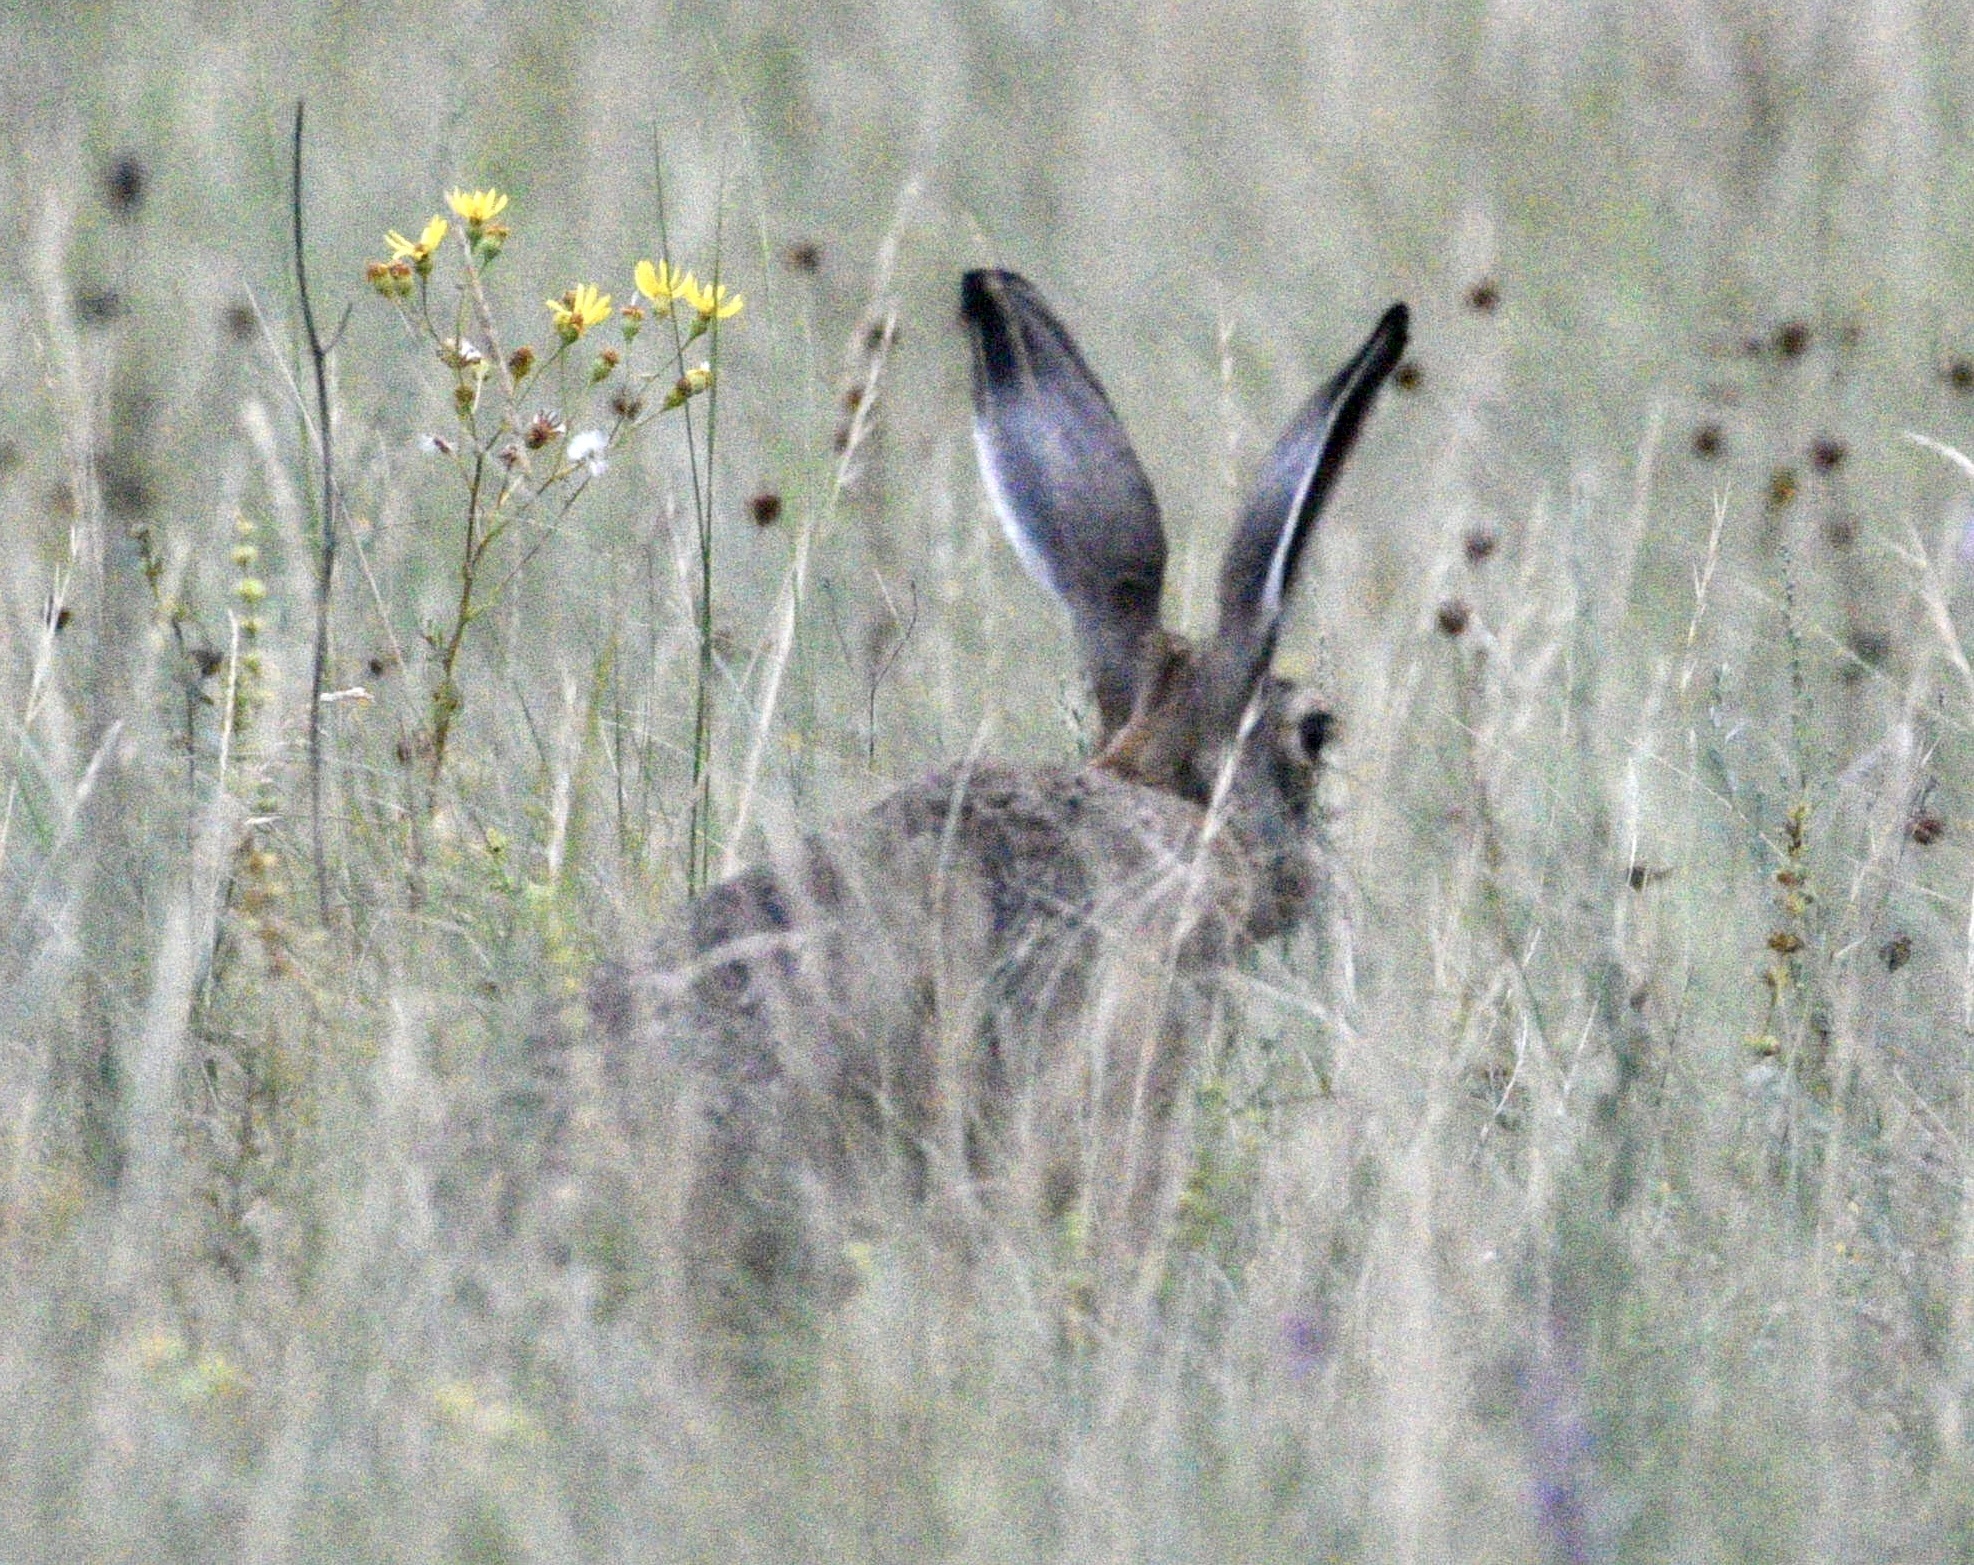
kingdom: Animalia
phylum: Chordata
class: Mammalia
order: Lagomorpha
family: Leporidae
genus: Lepus
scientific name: Lepus europaeus
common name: European hare
